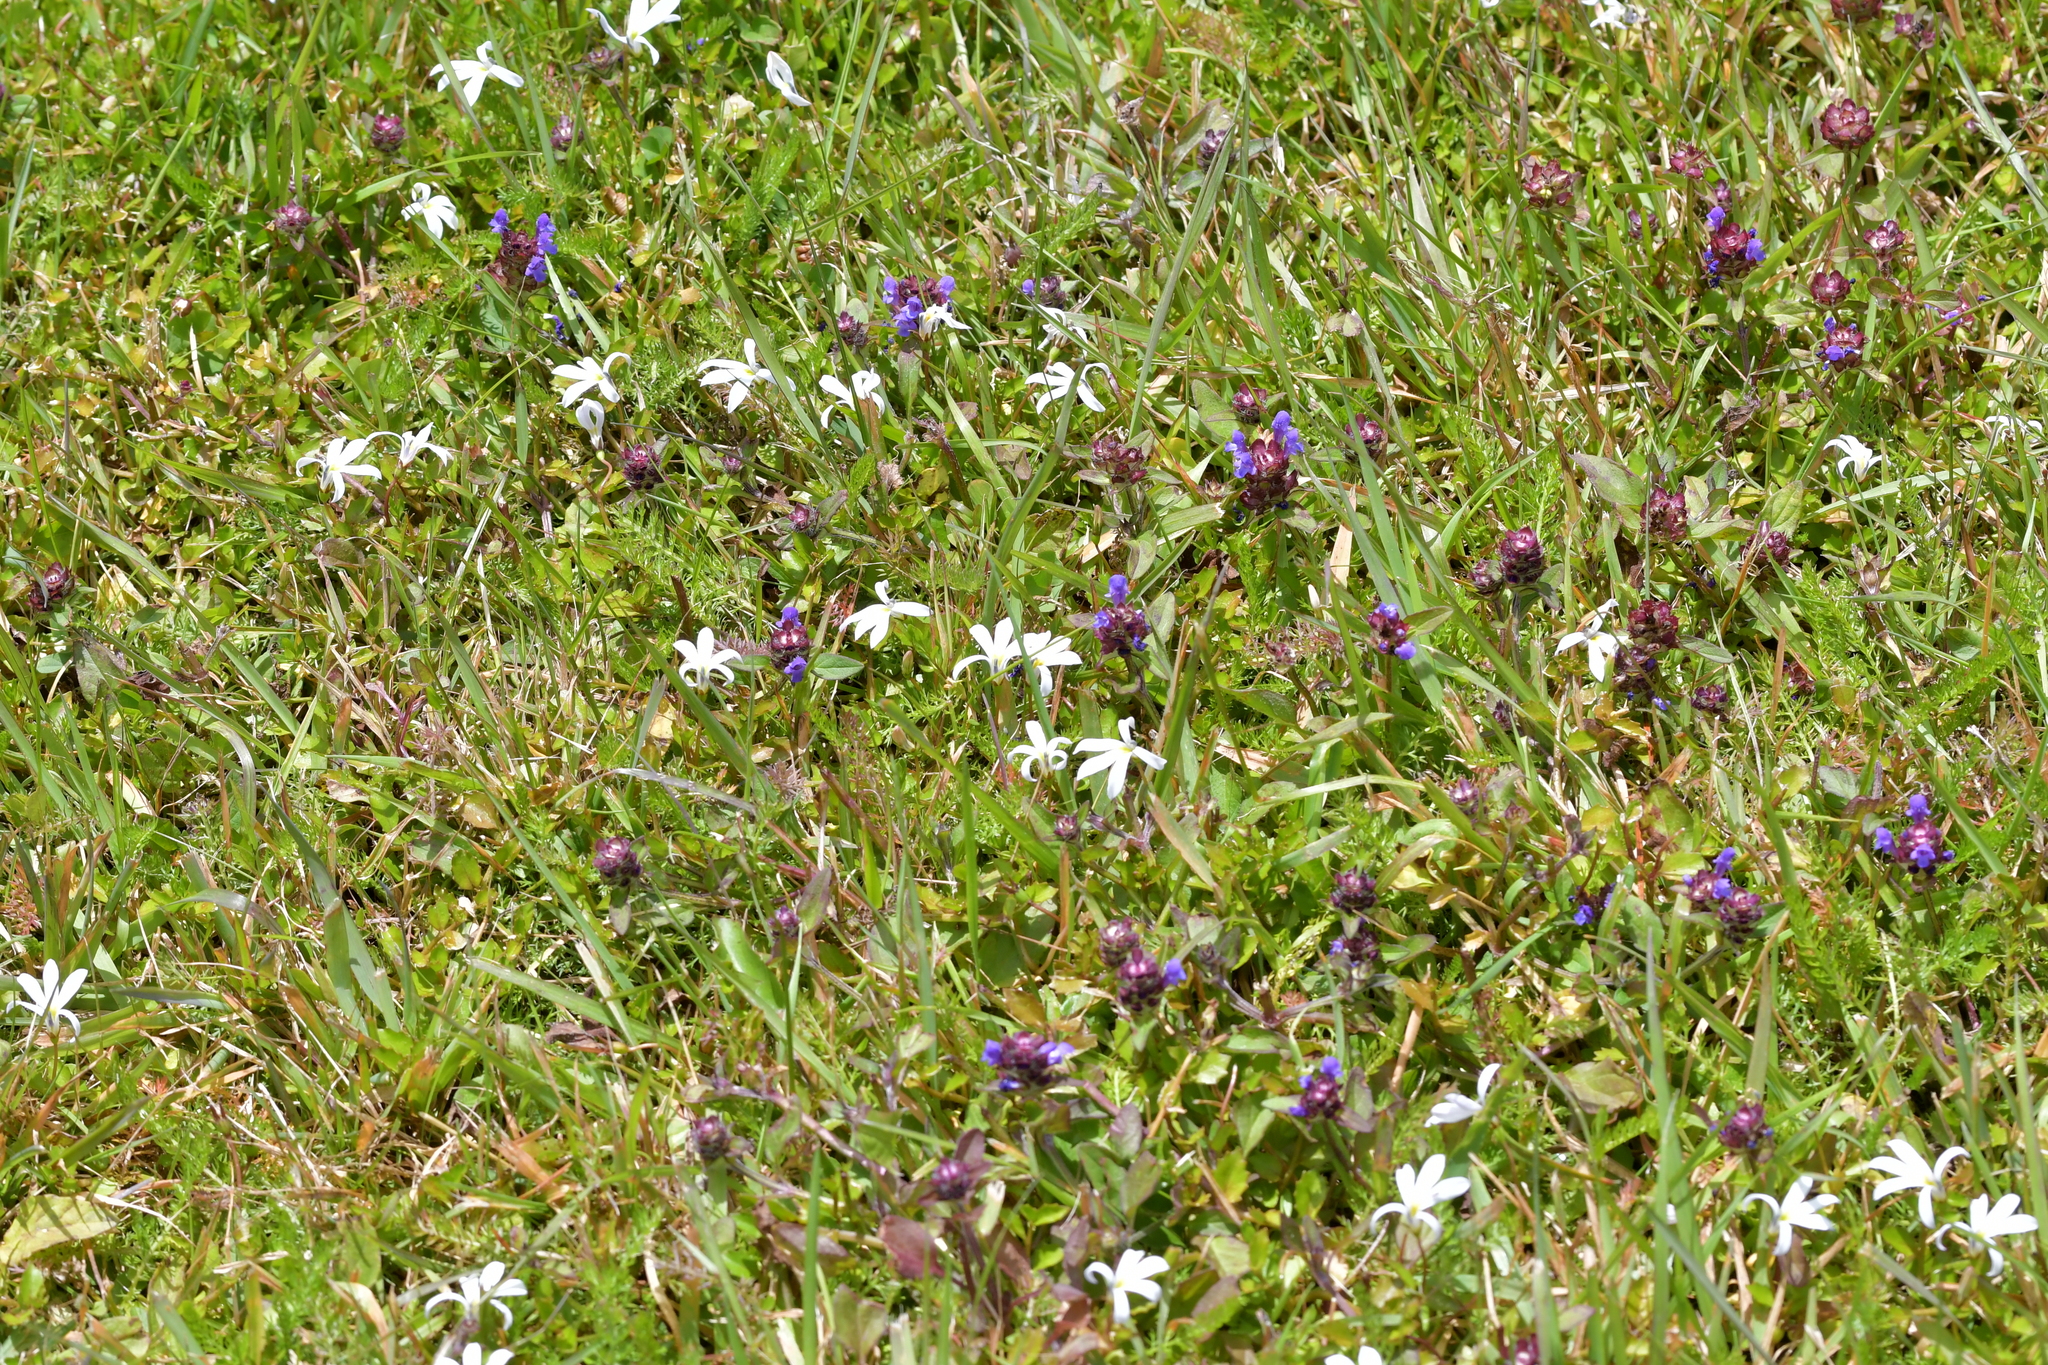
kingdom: Plantae
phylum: Tracheophyta
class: Magnoliopsida
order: Asterales
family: Campanulaceae
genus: Lobelia
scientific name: Lobelia angulata
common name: Lawn lobelia
